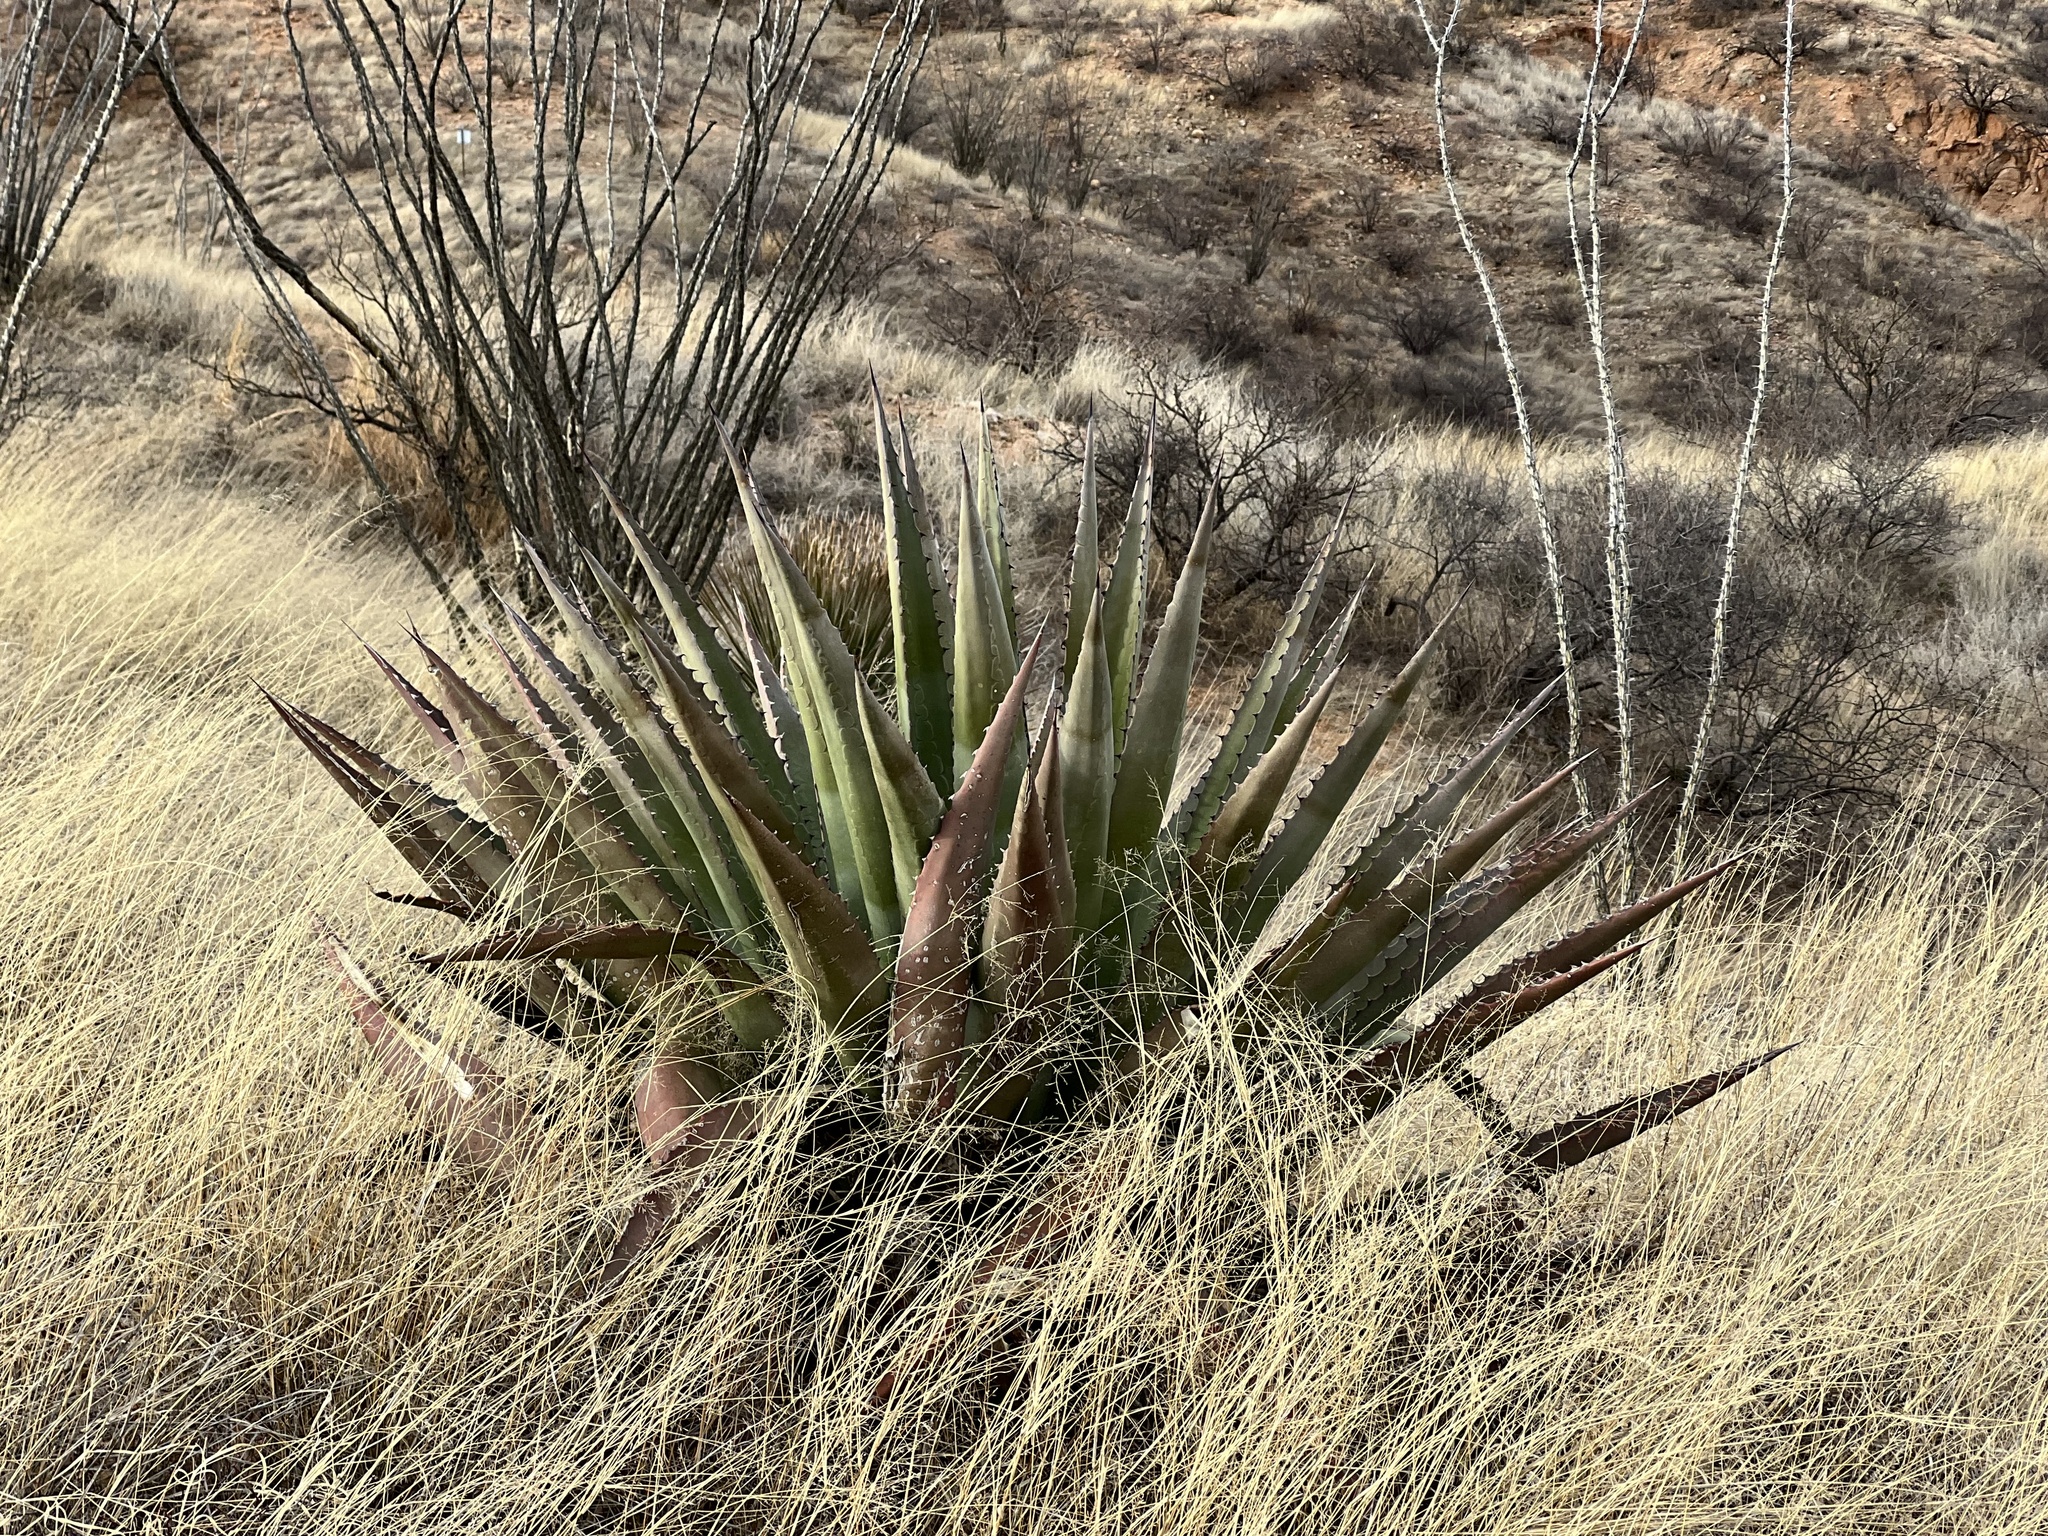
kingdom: Plantae
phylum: Tracheophyta
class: Liliopsida
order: Asparagales
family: Asparagaceae
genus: Agave
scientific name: Agave palmeri
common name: Palmer agave
